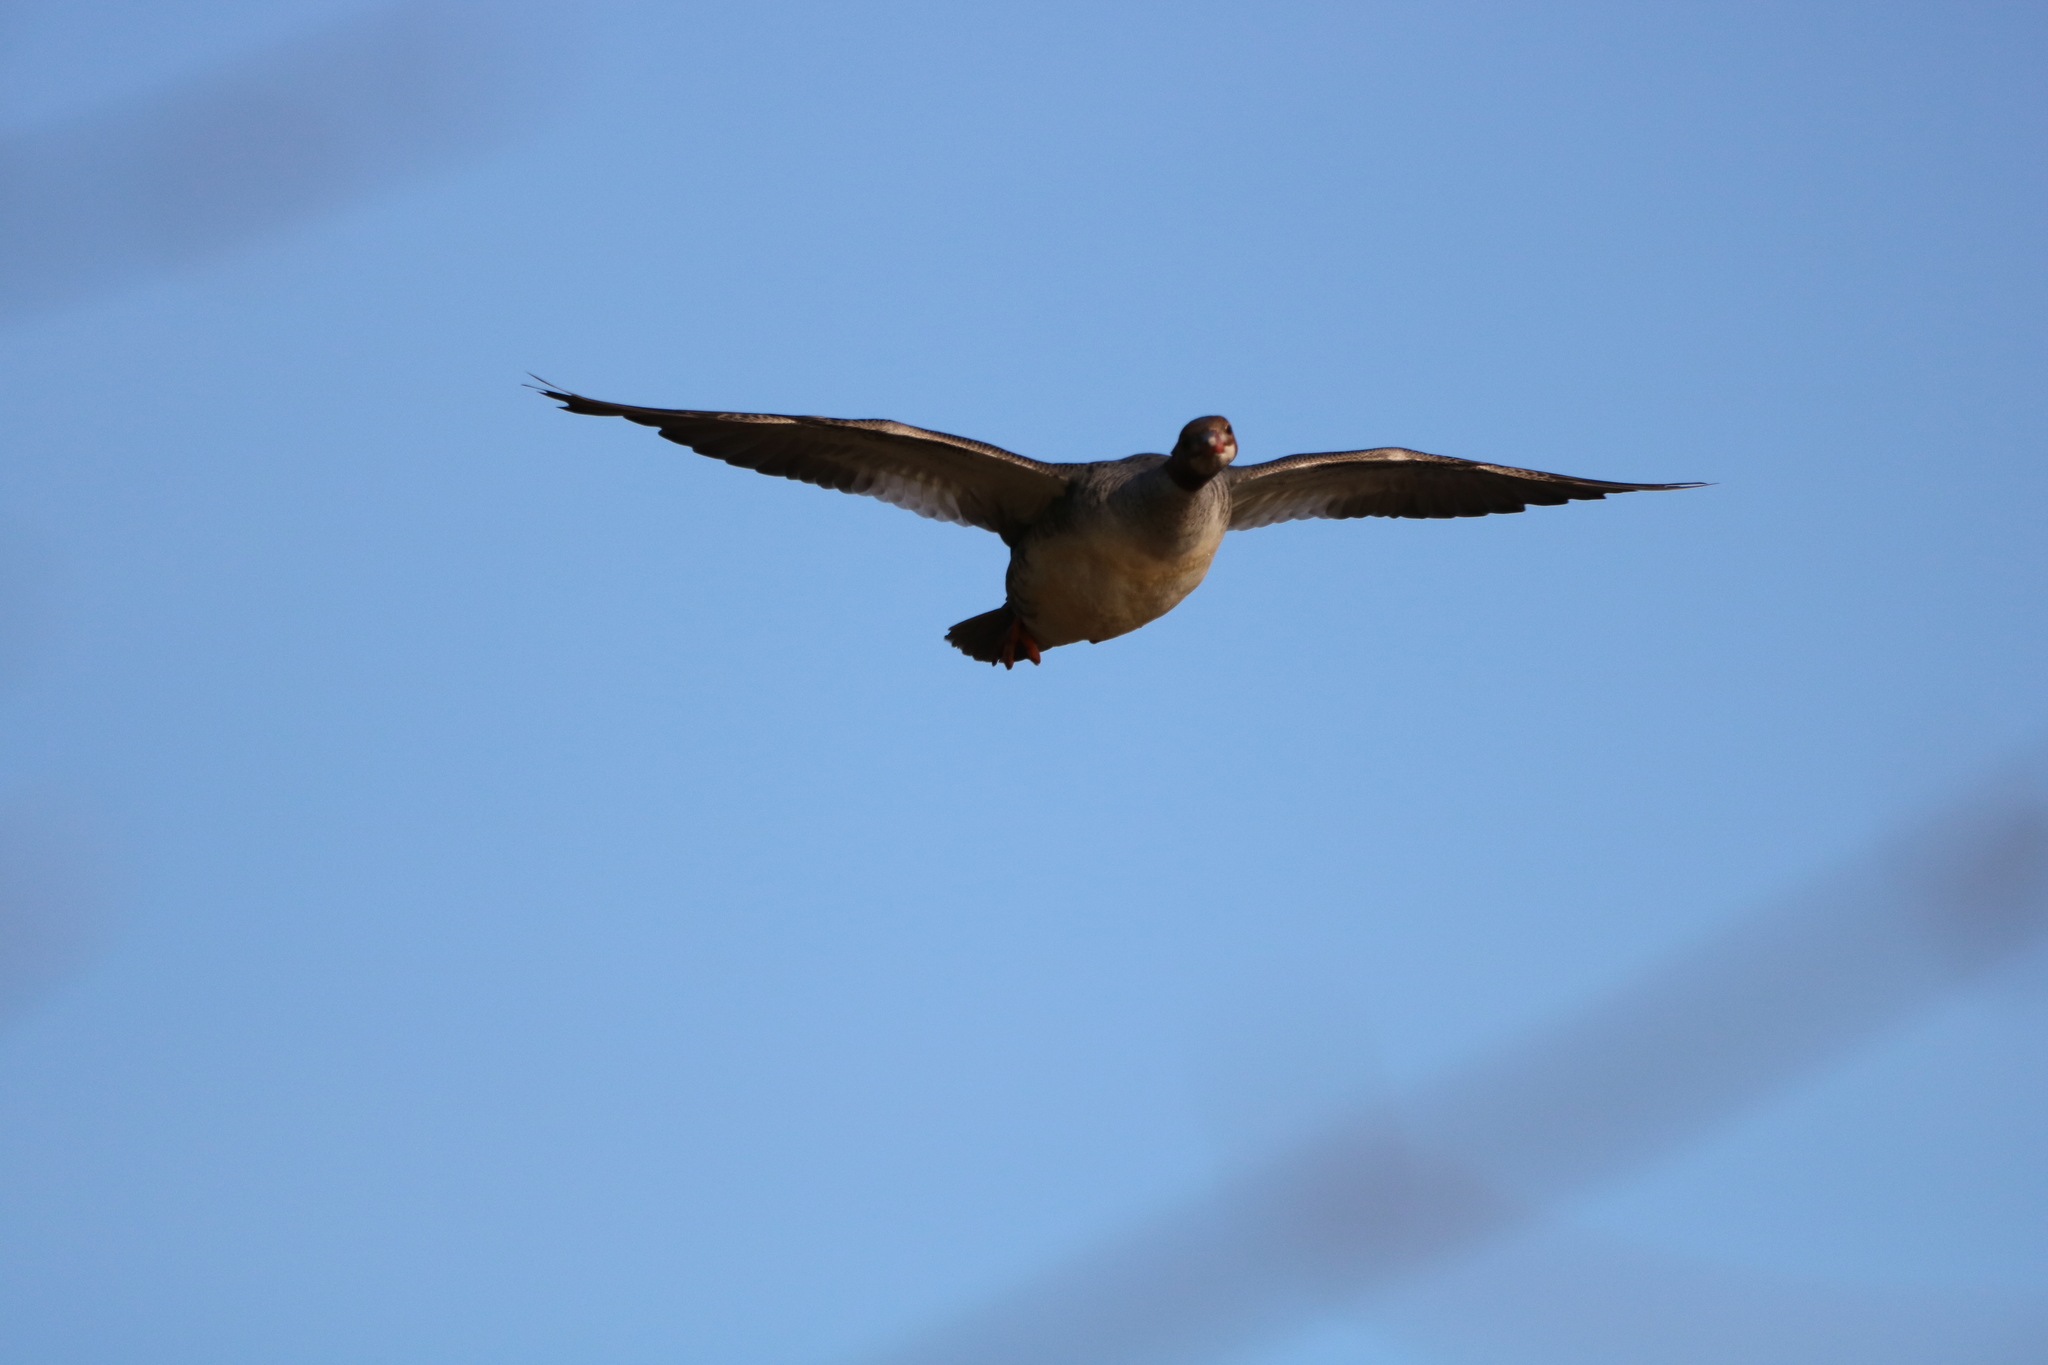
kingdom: Animalia
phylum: Chordata
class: Aves
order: Anseriformes
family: Anatidae
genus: Mergus
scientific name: Mergus merganser
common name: Common merganser
